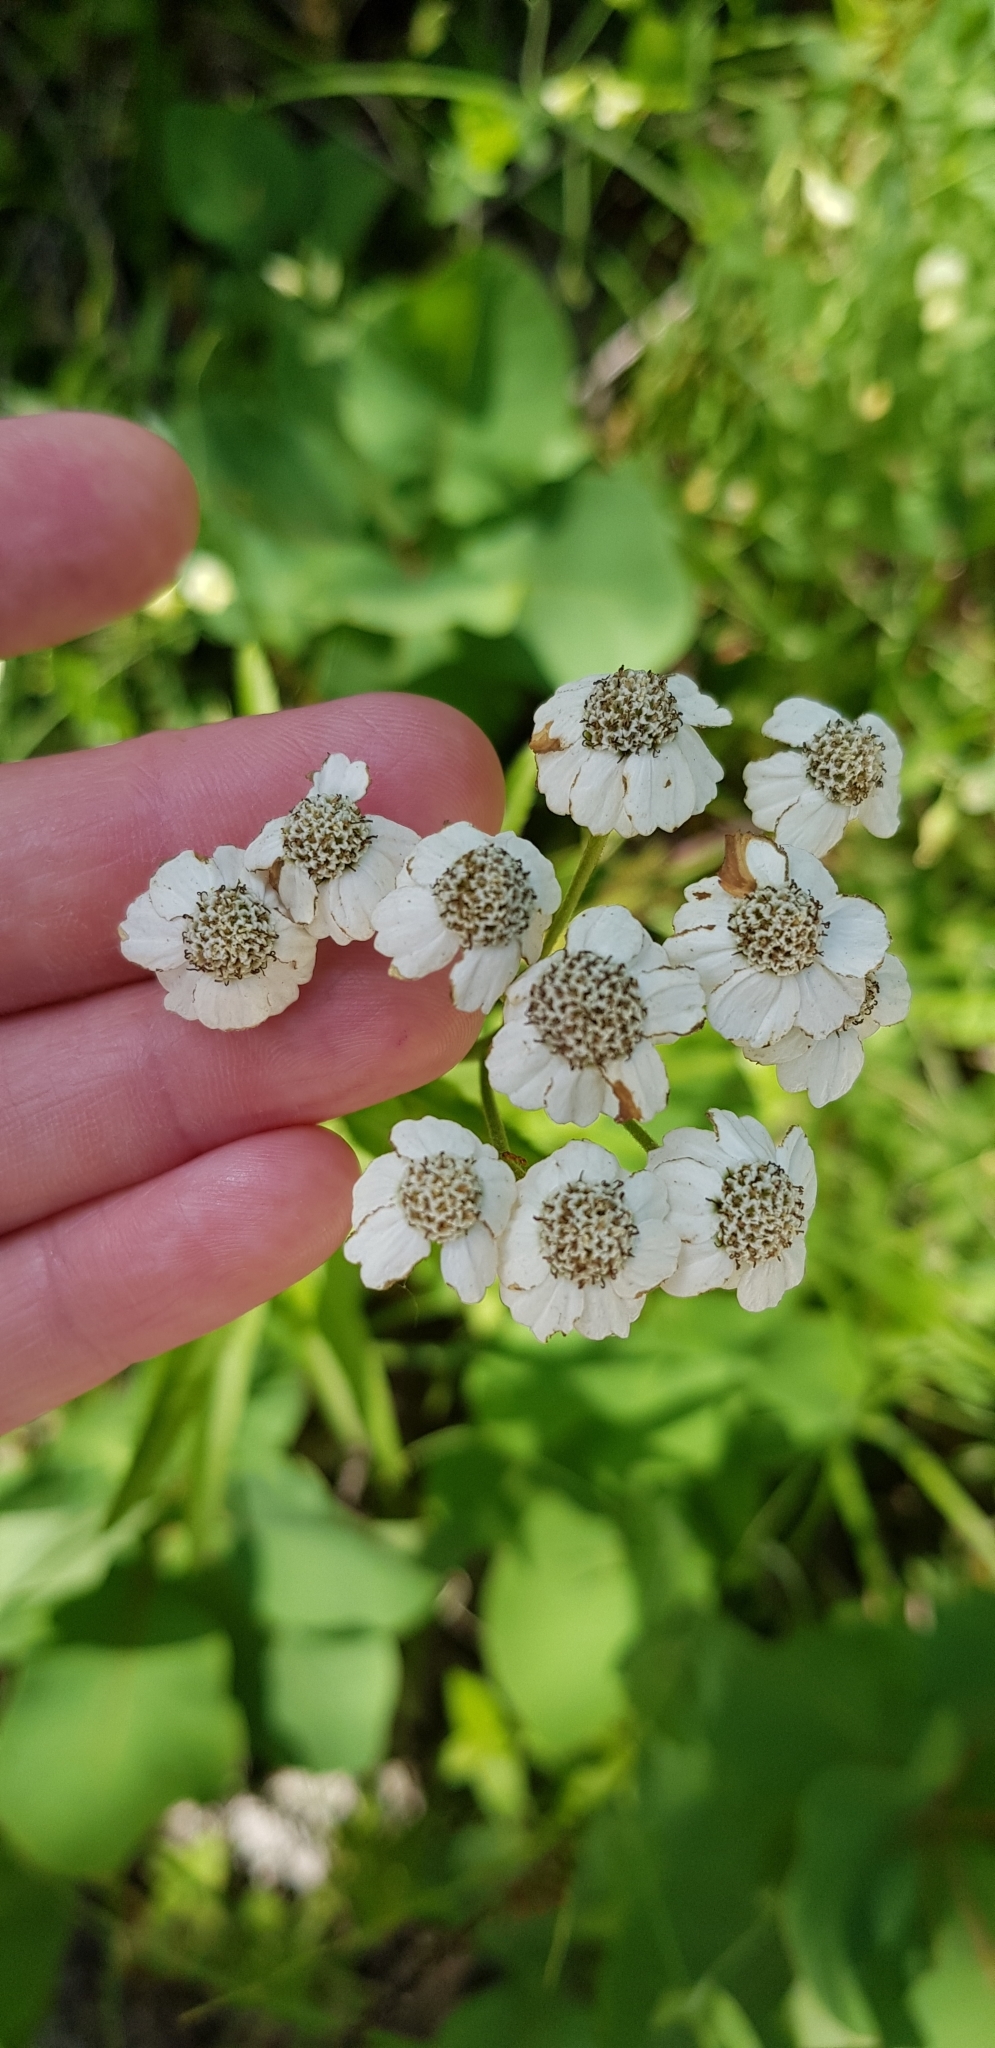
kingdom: Plantae
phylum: Tracheophyta
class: Magnoliopsida
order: Asterales
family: Asteraceae
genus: Achillea
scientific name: Achillea biserrata
